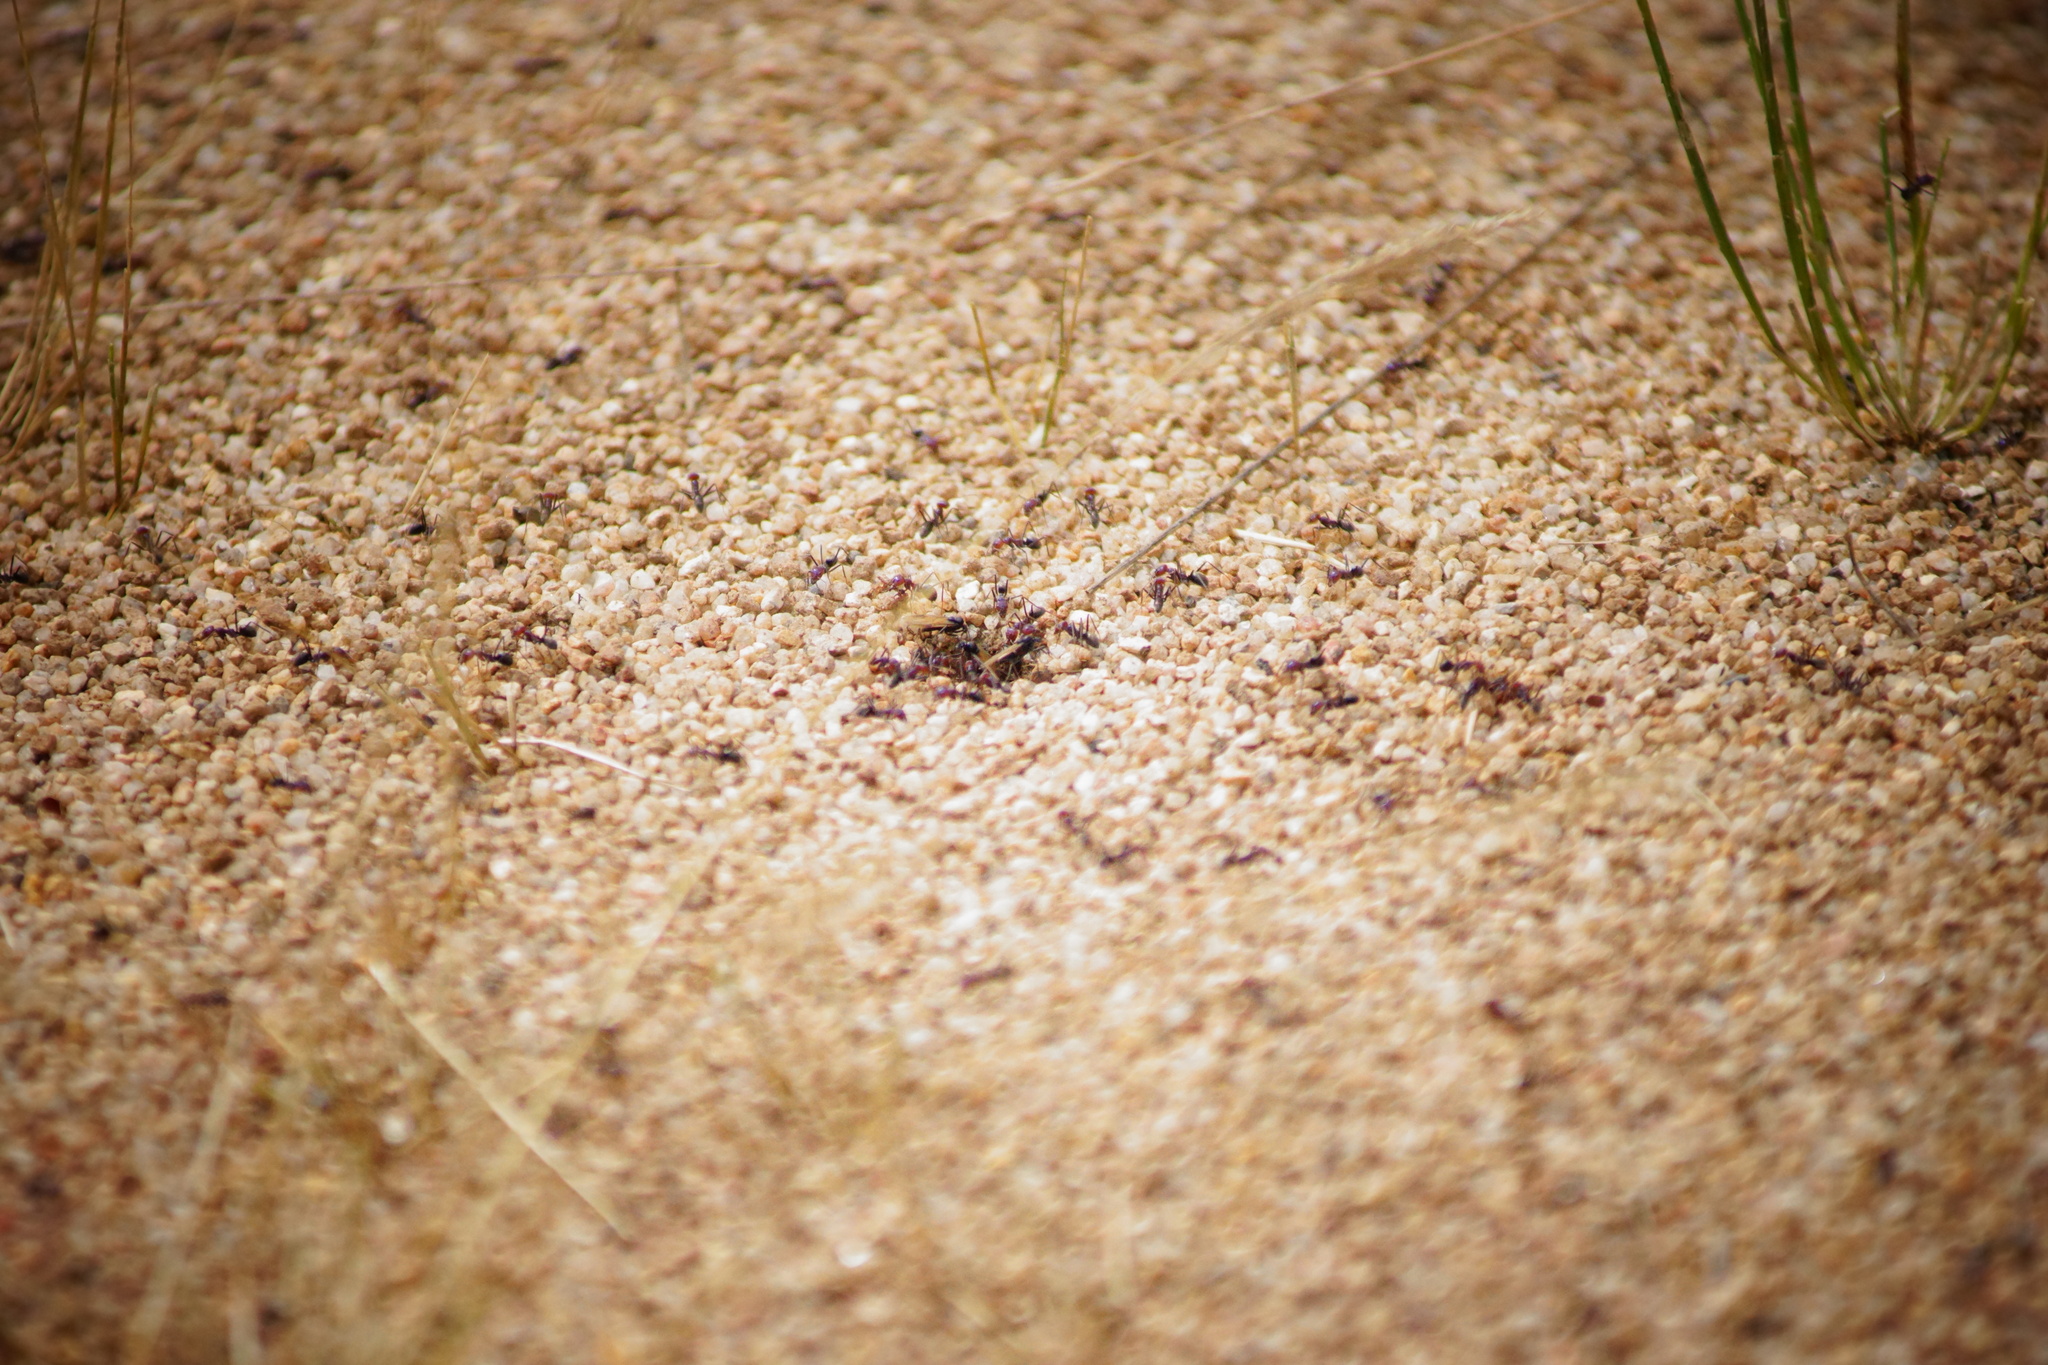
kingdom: Animalia
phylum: Arthropoda
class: Insecta
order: Hymenoptera
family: Formicidae
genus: Iridomyrmex
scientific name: Iridomyrmex purpureus
